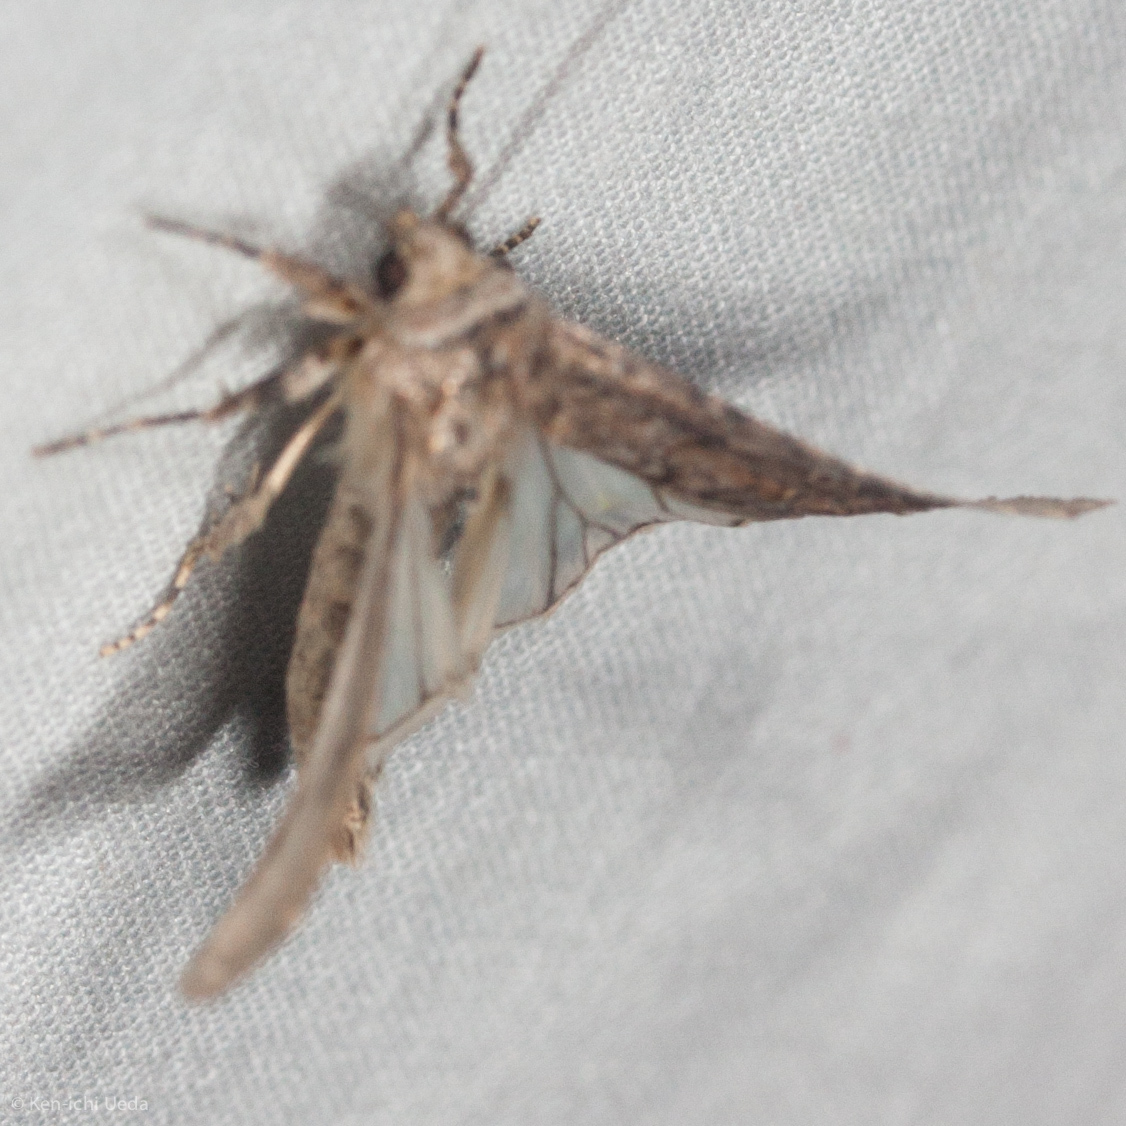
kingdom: Animalia
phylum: Arthropoda
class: Insecta
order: Lepidoptera
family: Noctuidae
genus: Spodoptera
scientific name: Spodoptera exigua
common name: Beet armyworm
